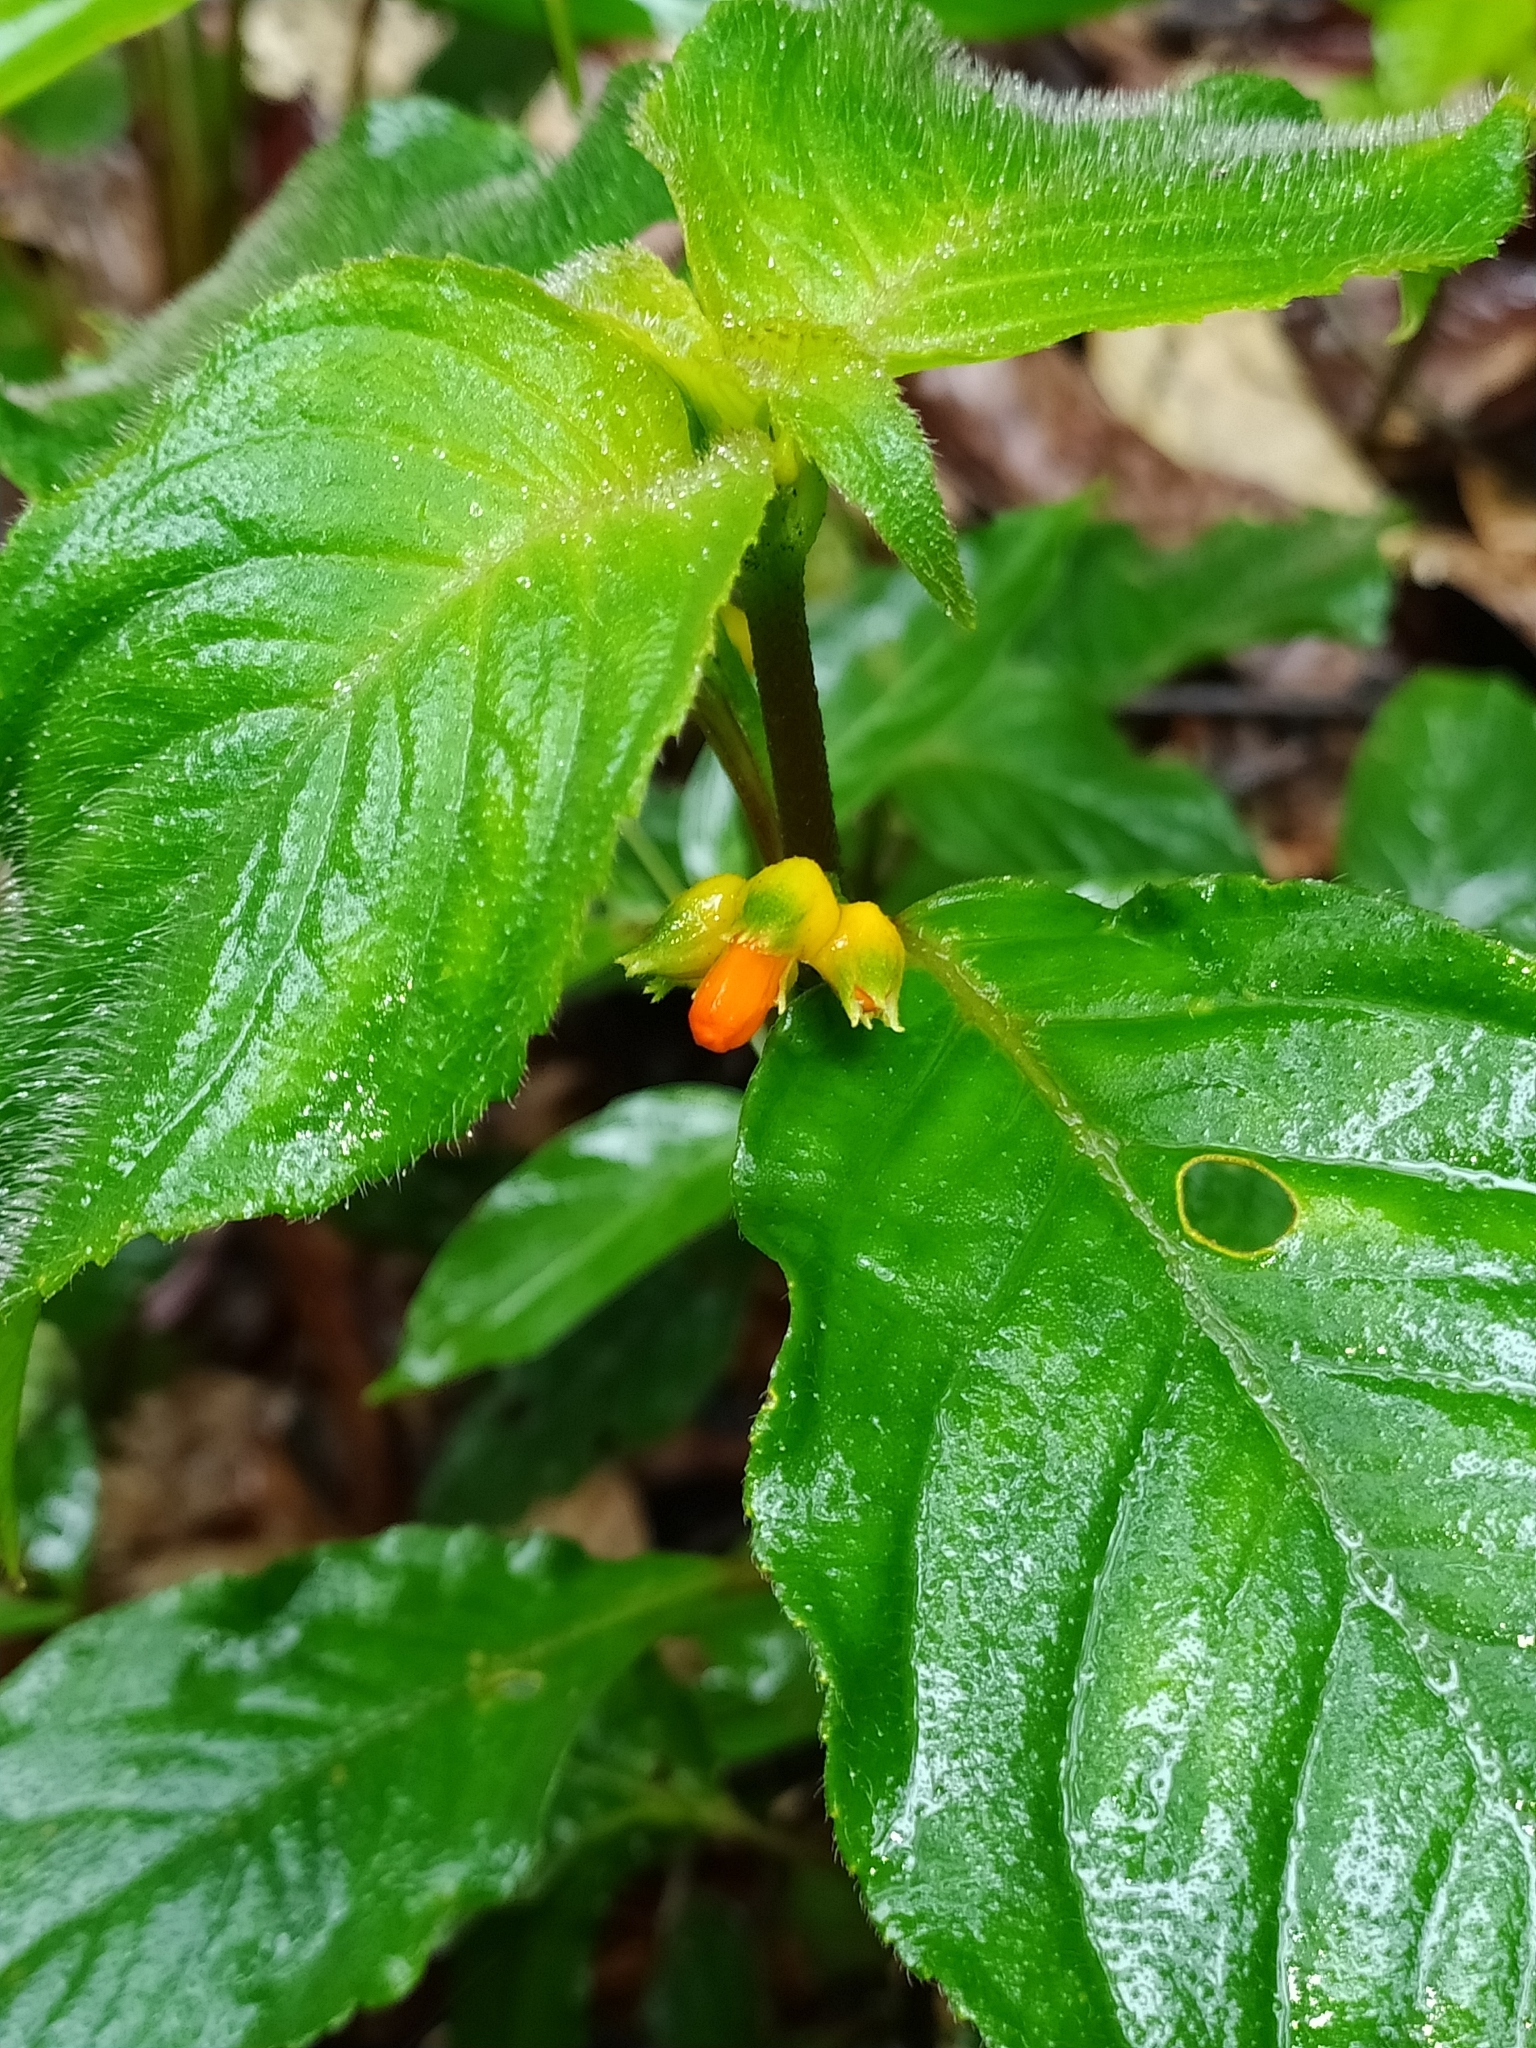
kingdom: Plantae
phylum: Tracheophyta
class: Magnoliopsida
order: Lamiales
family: Gesneriaceae
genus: Besleria
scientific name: Besleria patrisii
